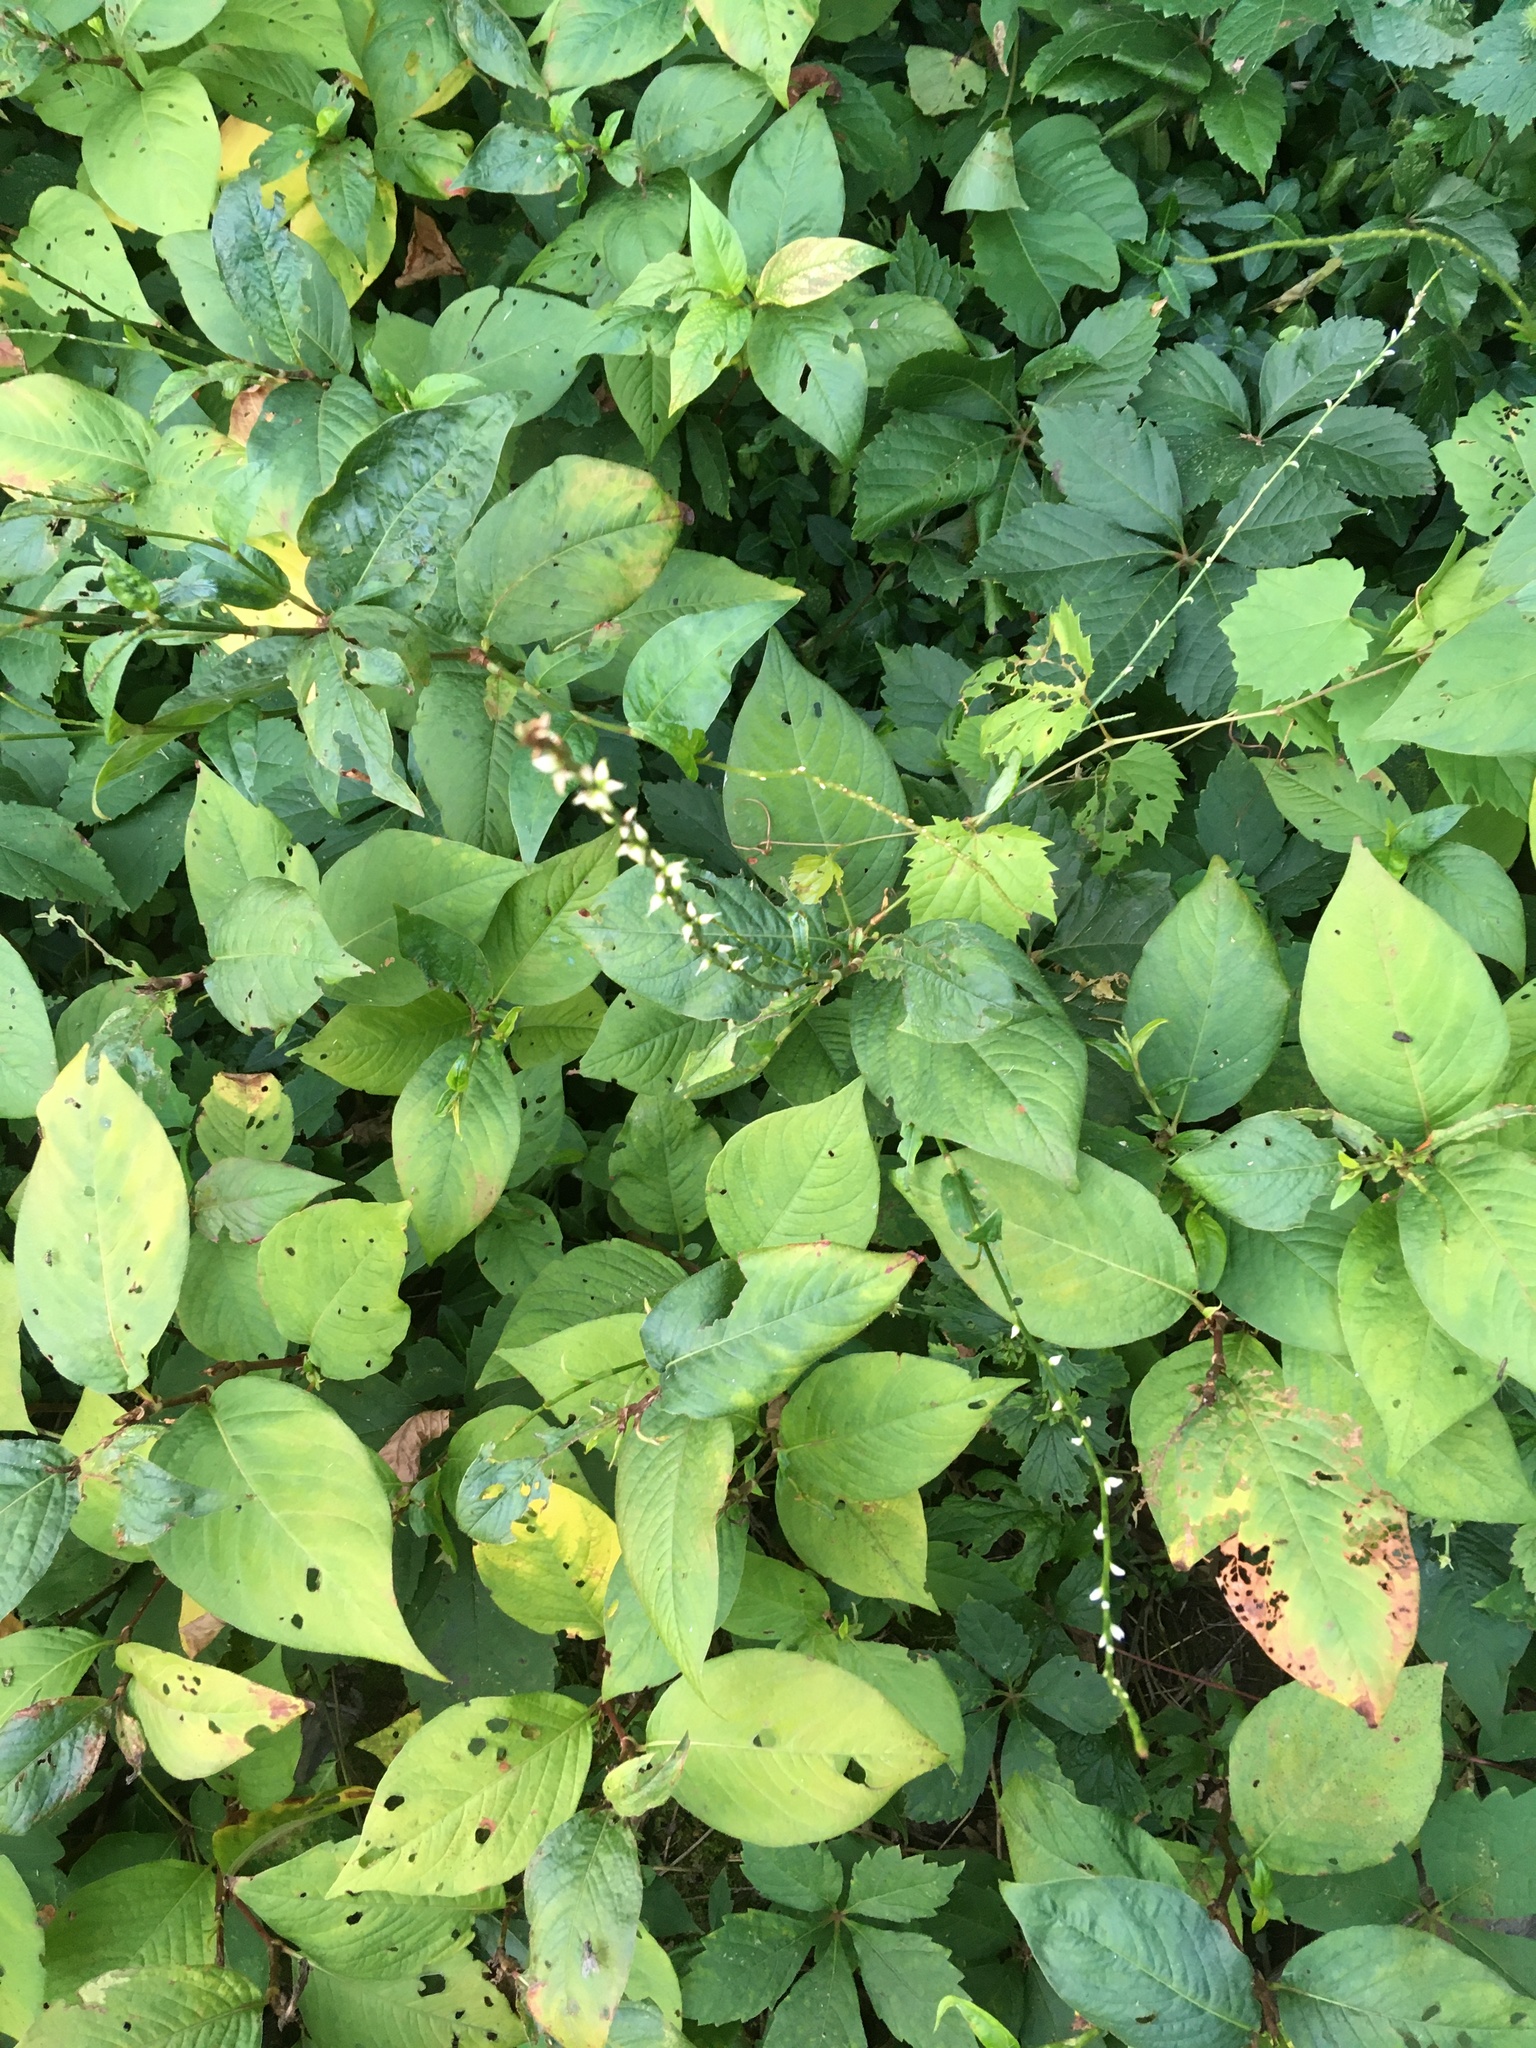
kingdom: Plantae
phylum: Tracheophyta
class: Magnoliopsida
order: Caryophyllales
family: Polygonaceae
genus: Persicaria
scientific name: Persicaria virginiana
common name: Jumpseed
